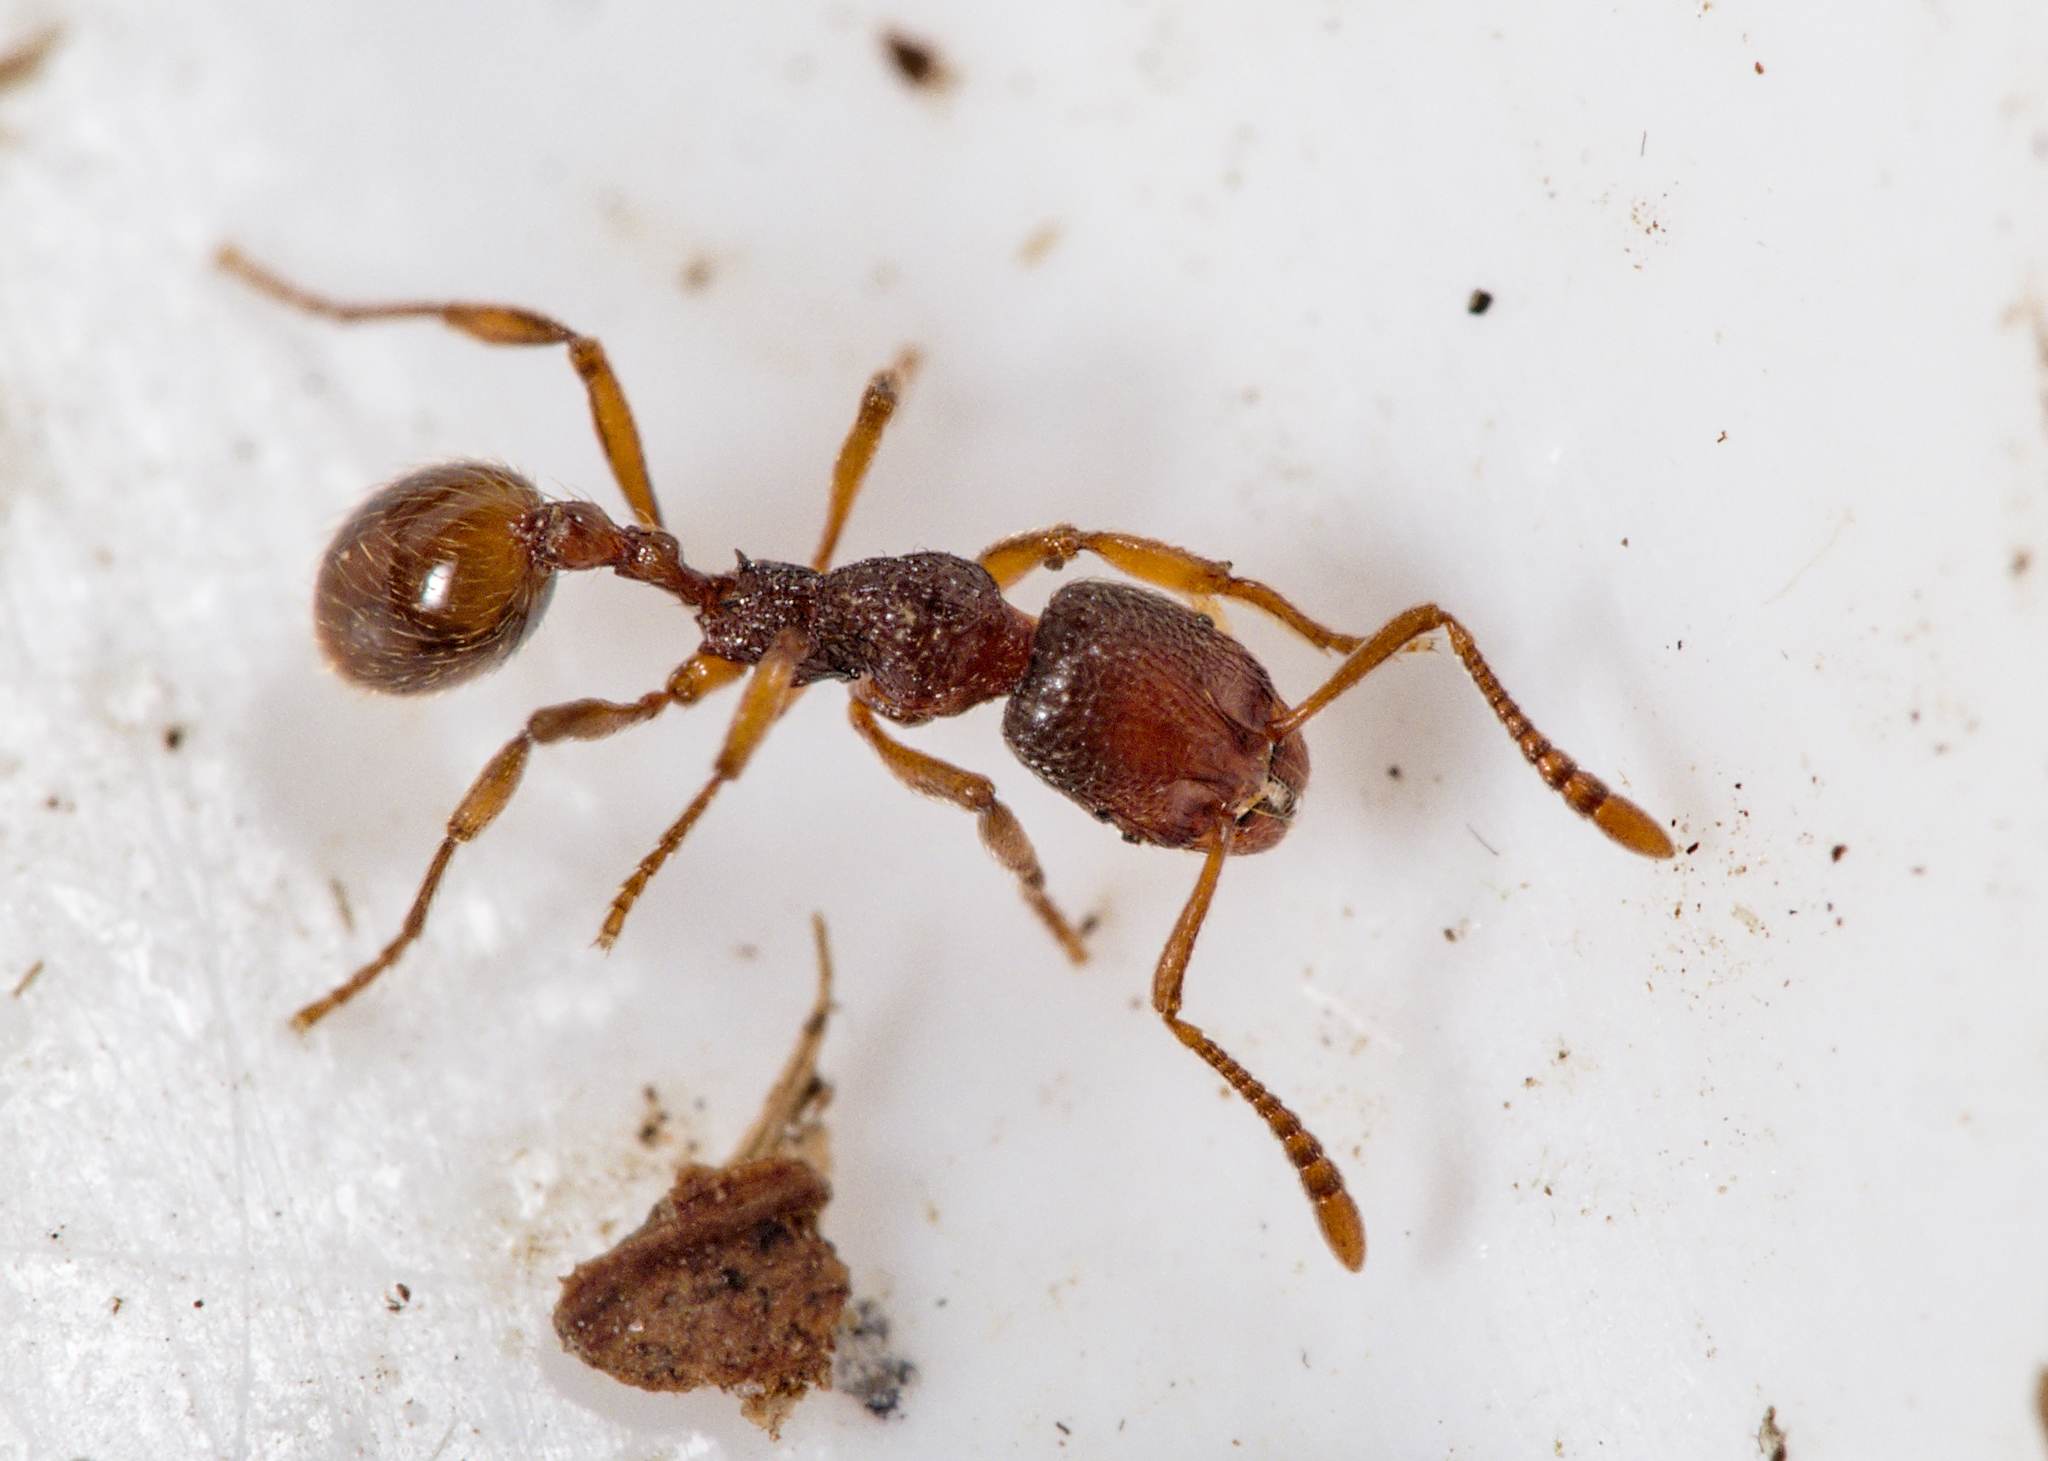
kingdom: Animalia
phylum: Arthropoda
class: Insecta
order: Hymenoptera
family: Formicidae
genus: Stenamma
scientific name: Stenamma debile
